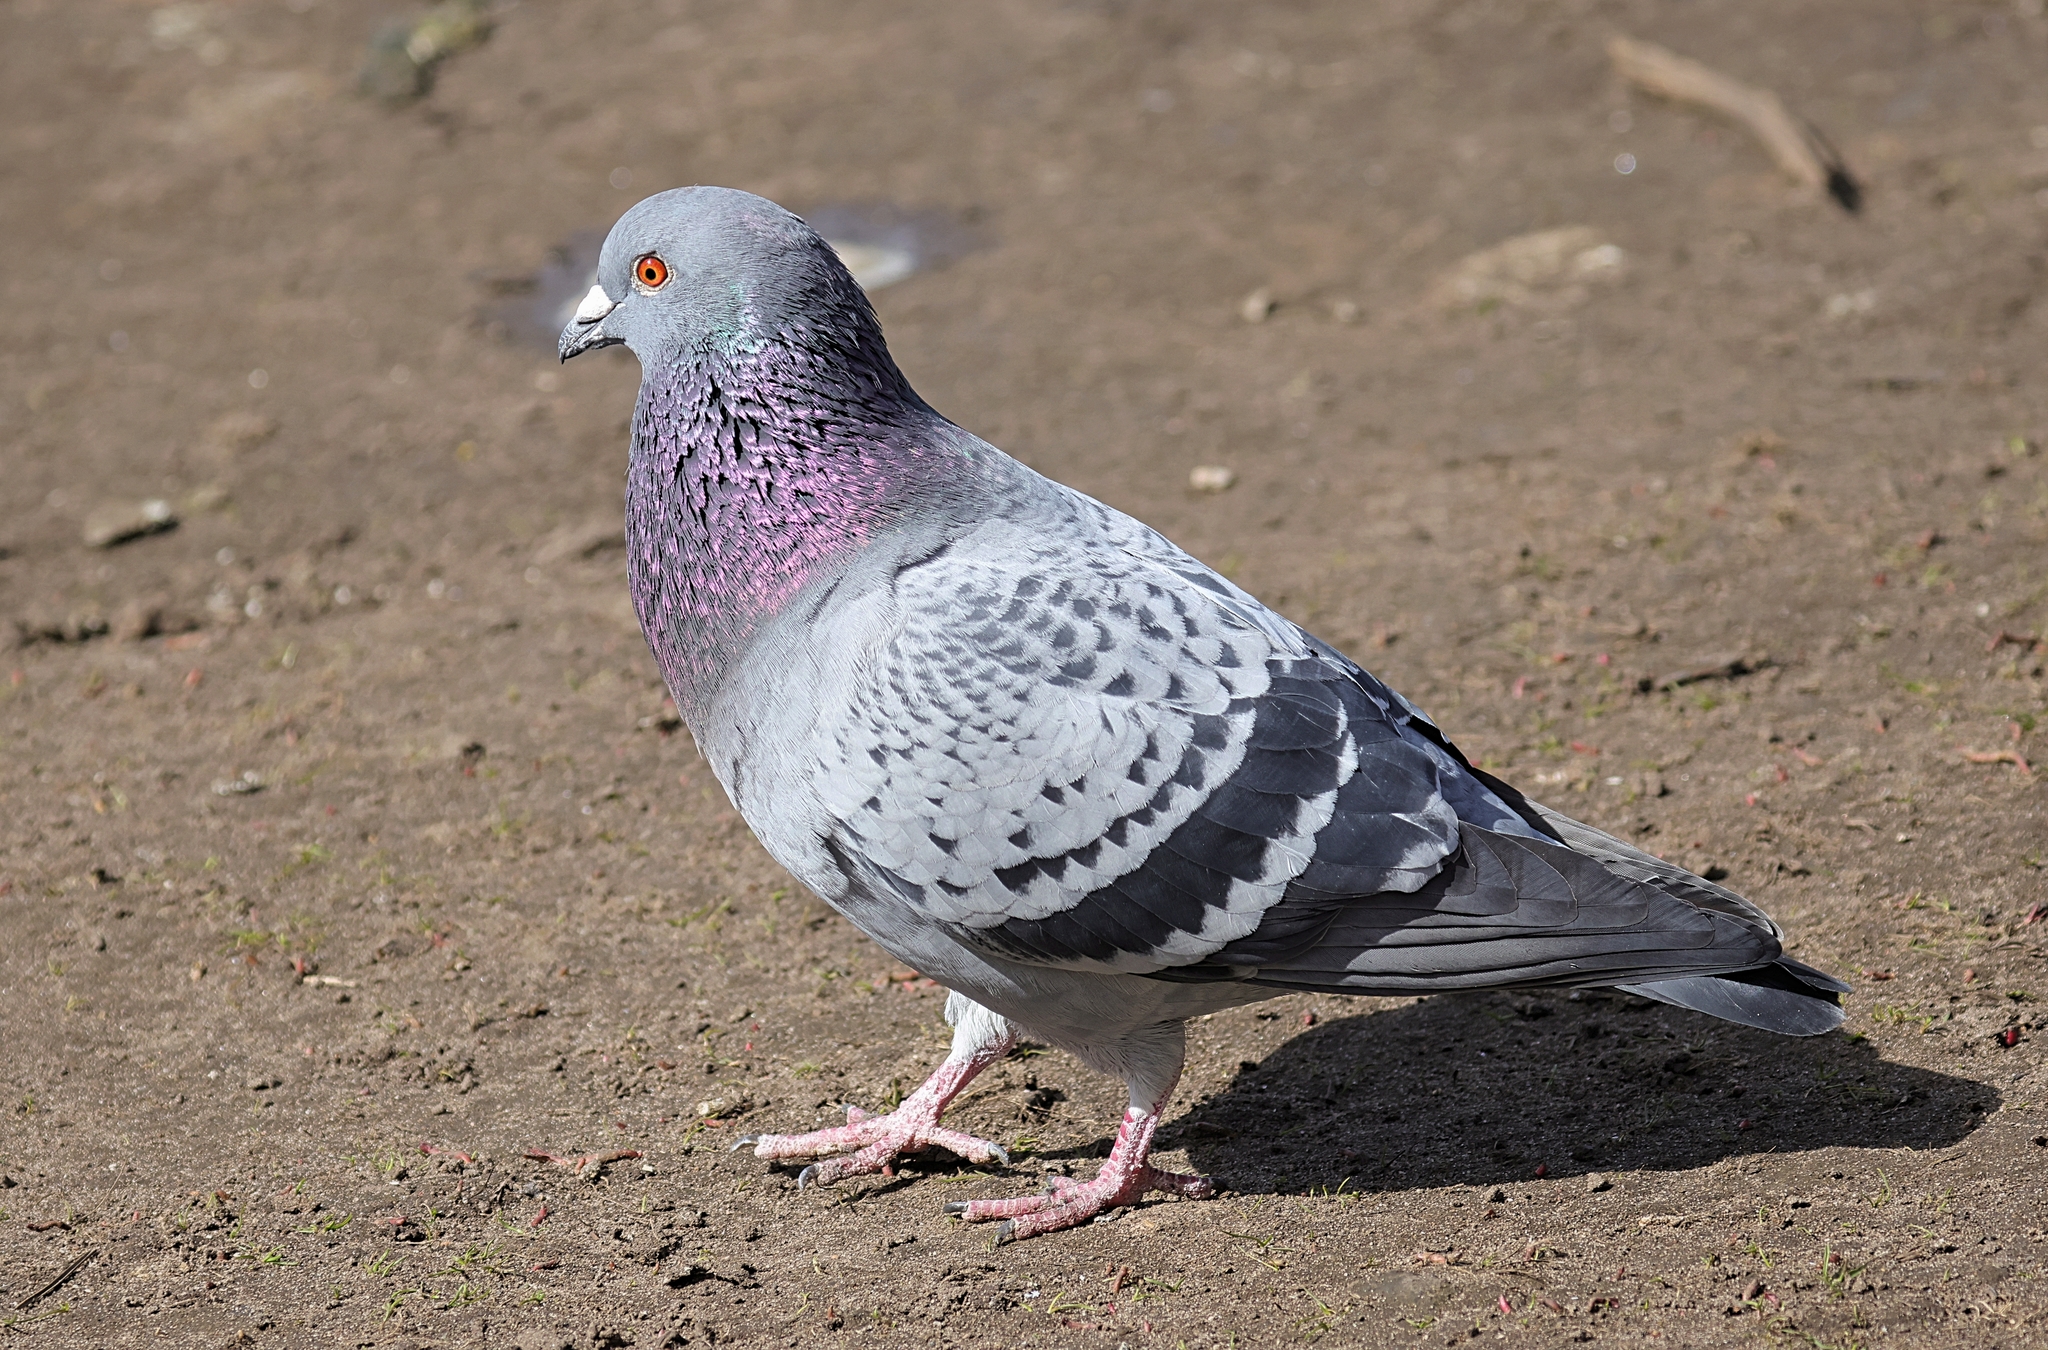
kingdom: Animalia
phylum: Chordata
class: Aves
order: Columbiformes
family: Columbidae
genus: Columba
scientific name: Columba livia
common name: Rock pigeon
